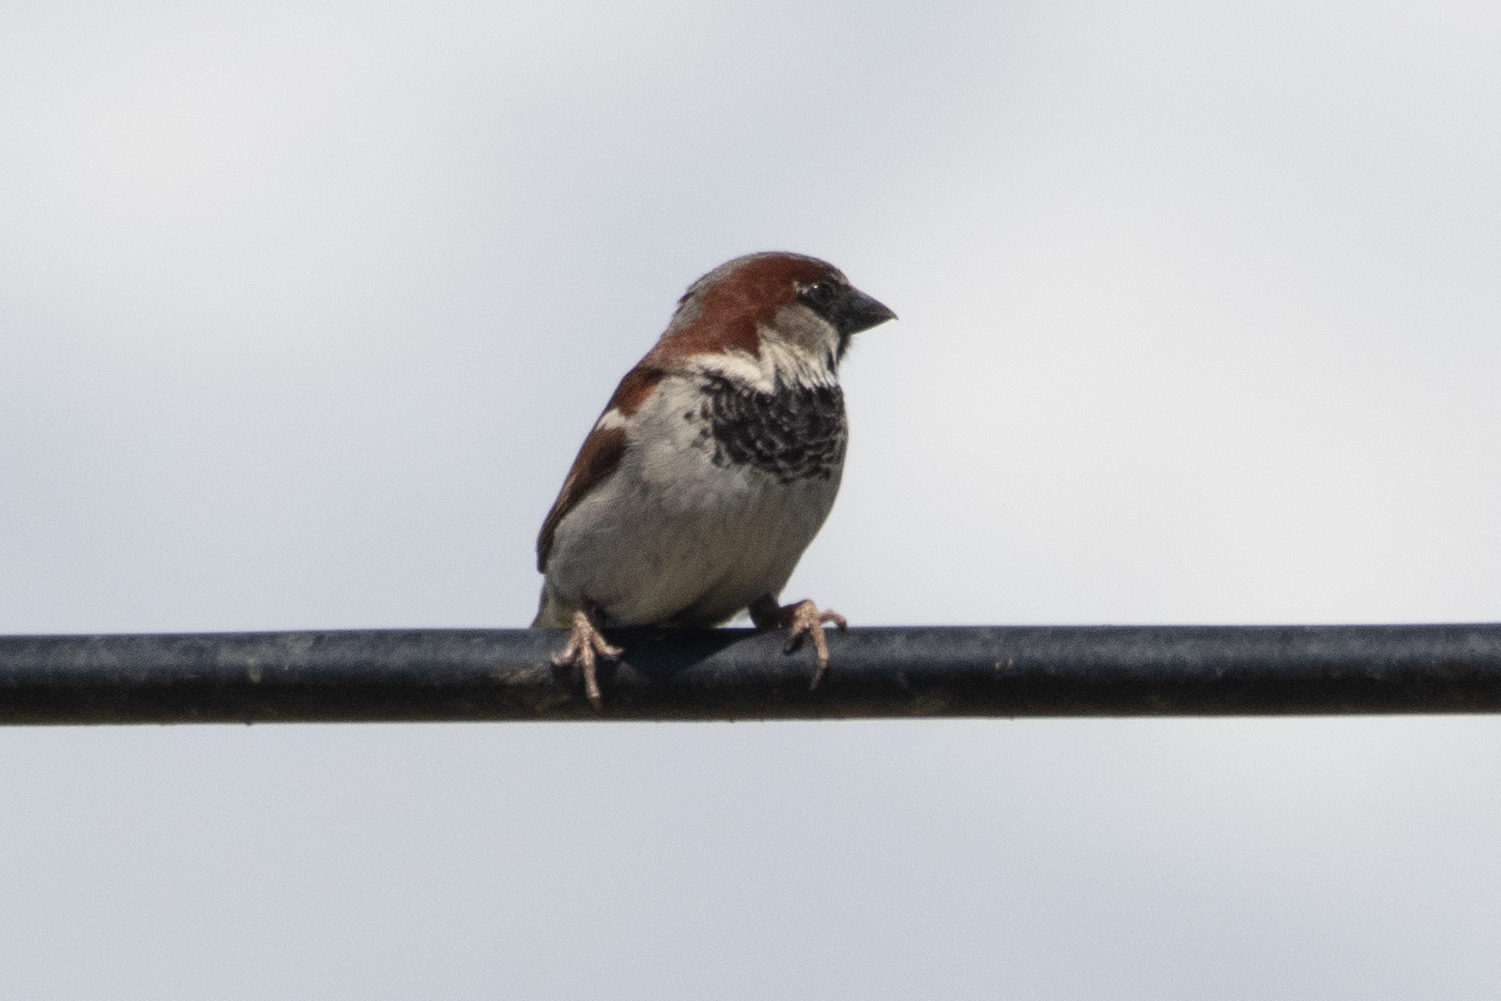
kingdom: Animalia
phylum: Chordata
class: Aves
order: Passeriformes
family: Passeridae
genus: Passer
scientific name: Passer domesticus
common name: House sparrow
